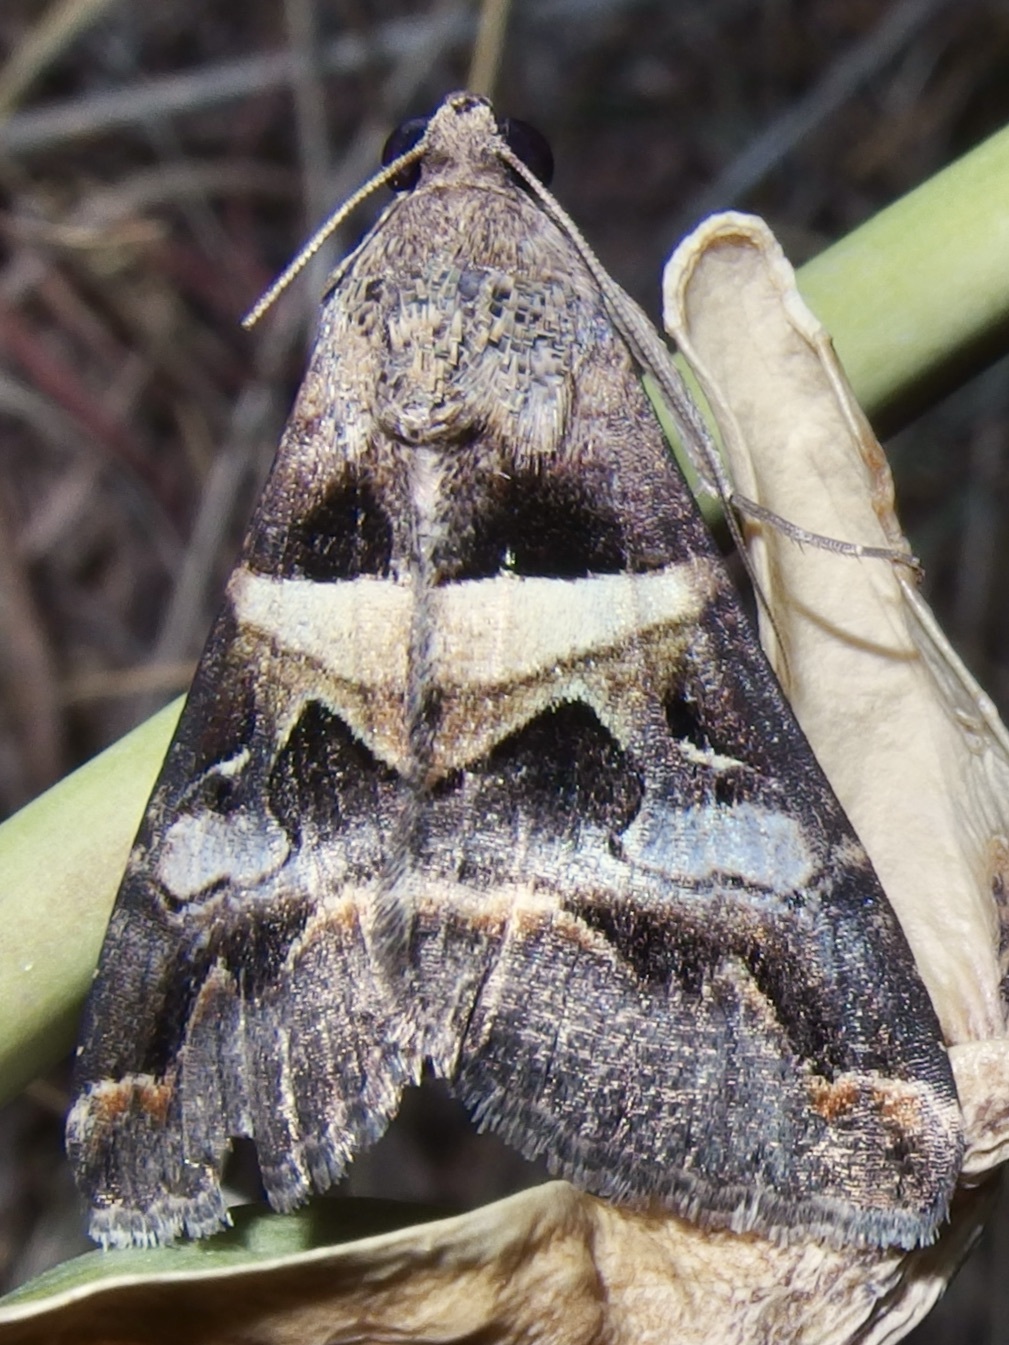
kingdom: Animalia
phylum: Arthropoda
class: Insecta
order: Lepidoptera
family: Erebidae
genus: Melipotis
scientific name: Melipotis perpendicularis
